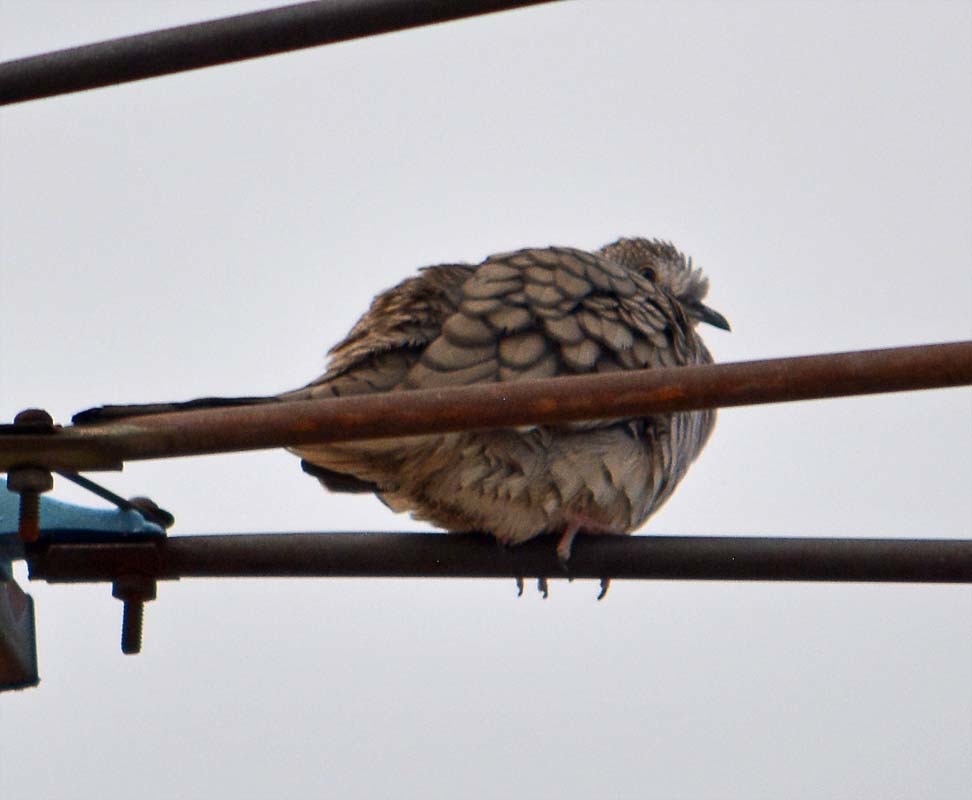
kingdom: Animalia
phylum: Chordata
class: Aves
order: Columbiformes
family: Columbidae
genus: Columbina
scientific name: Columbina inca
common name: Inca dove
